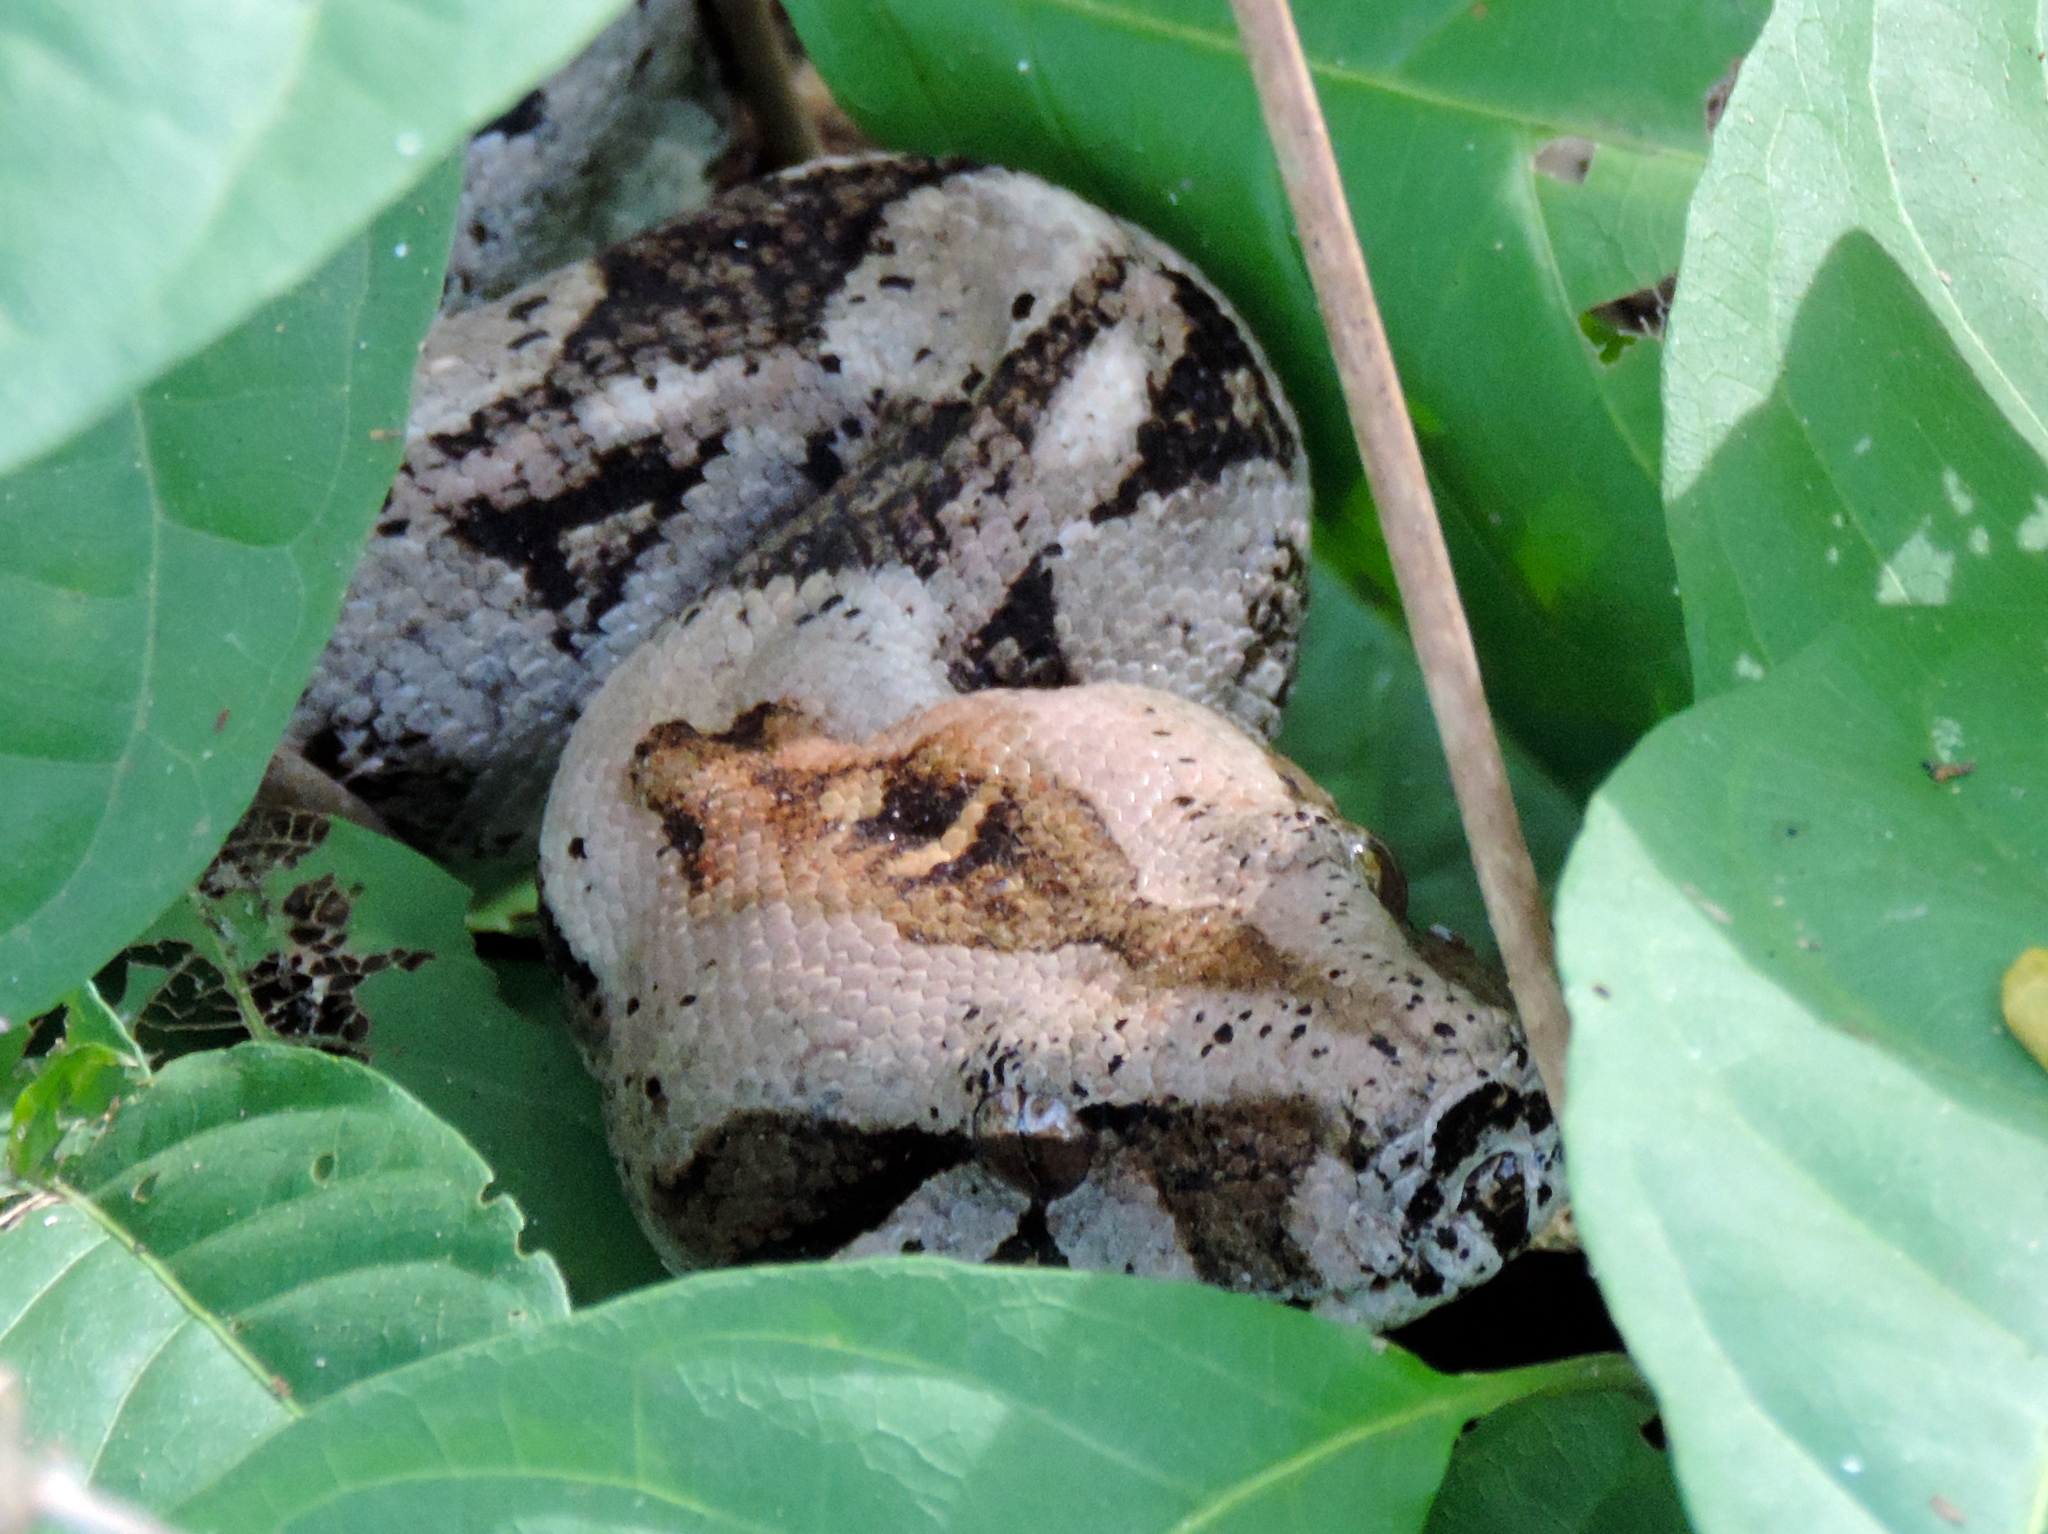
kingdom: Animalia
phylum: Chordata
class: Squamata
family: Boidae
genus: Boa
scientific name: Boa
